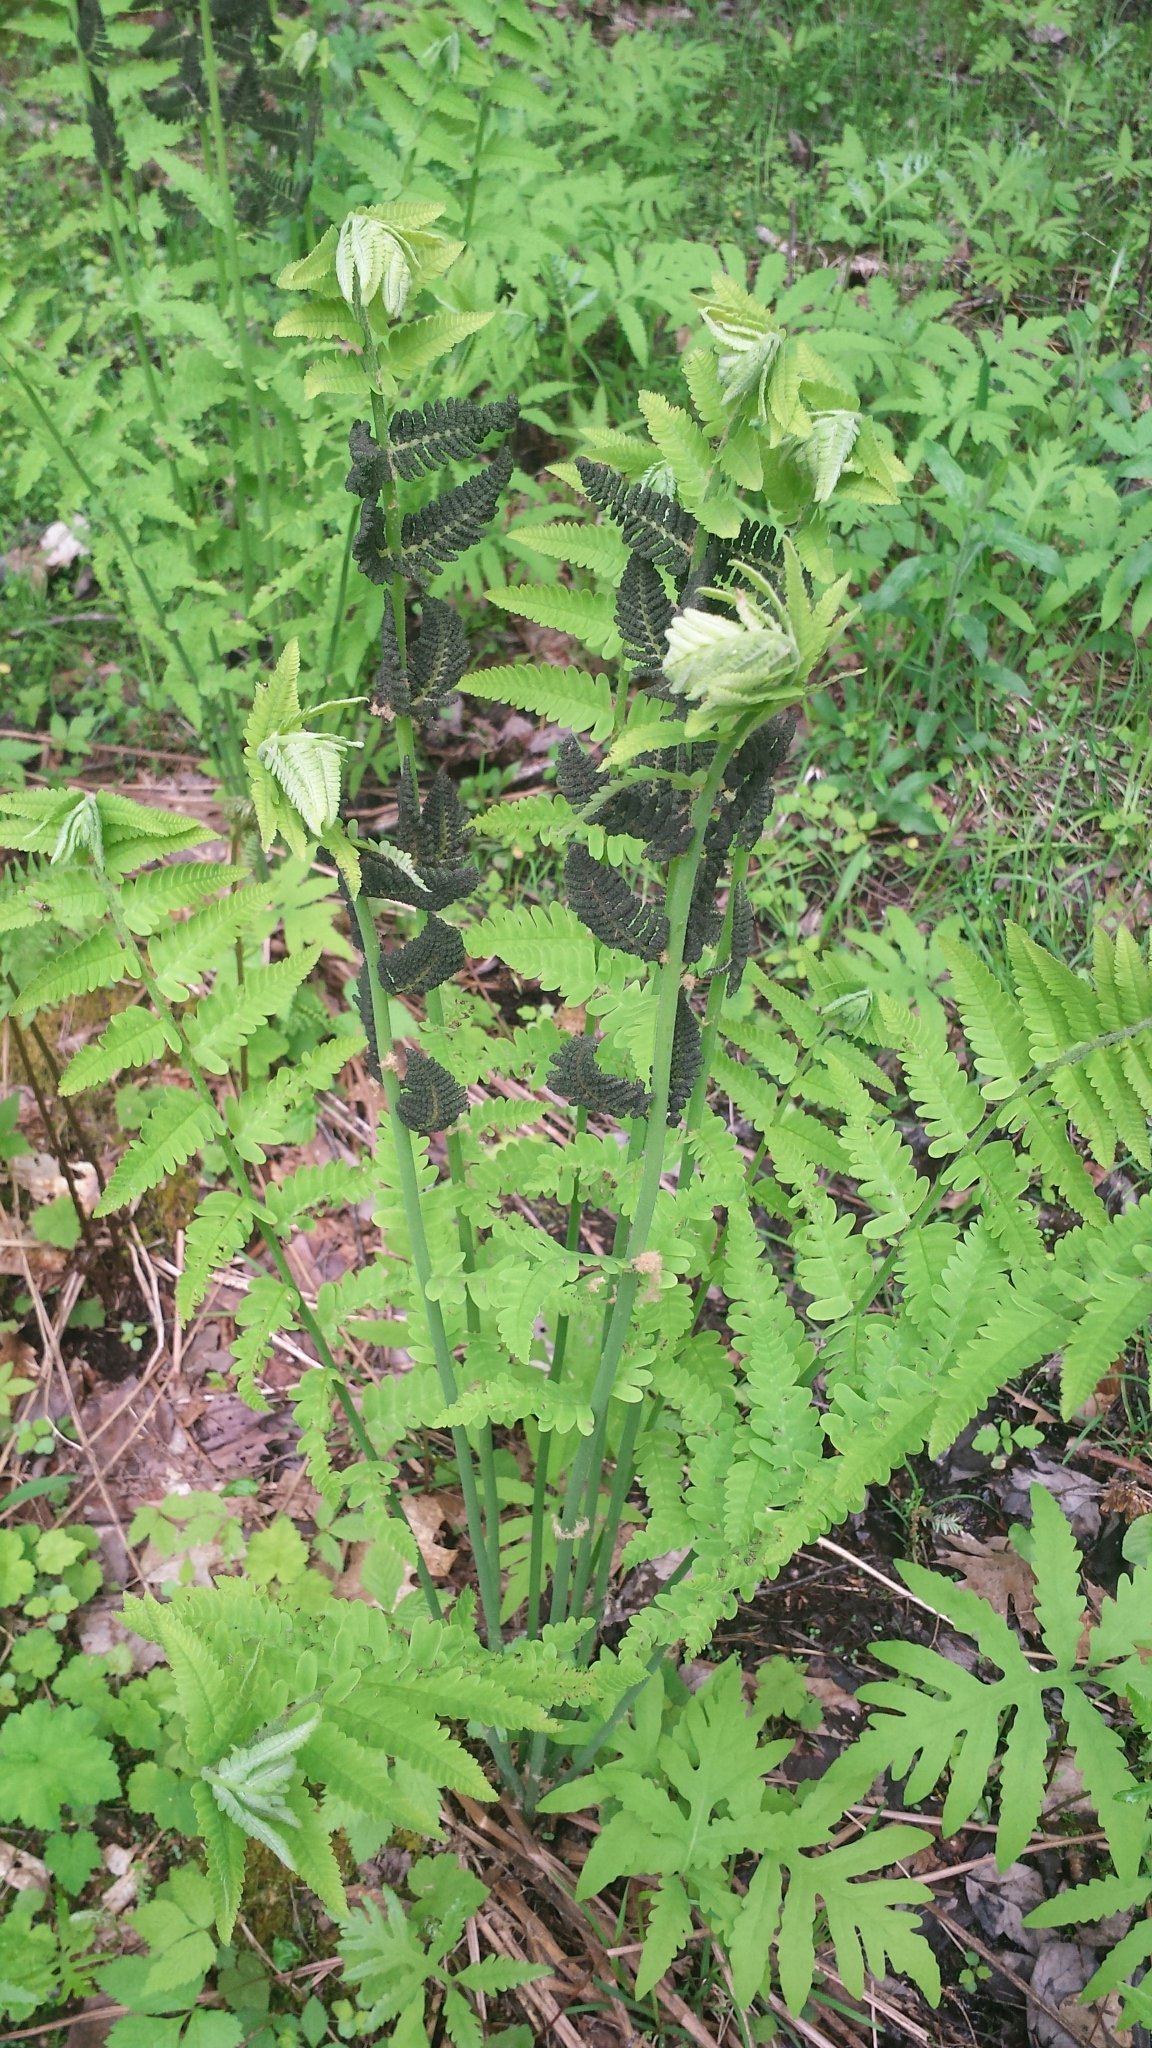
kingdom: Plantae
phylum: Tracheophyta
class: Polypodiopsida
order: Osmundales
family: Osmundaceae
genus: Claytosmunda
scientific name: Claytosmunda claytoniana
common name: Clayton's fern
